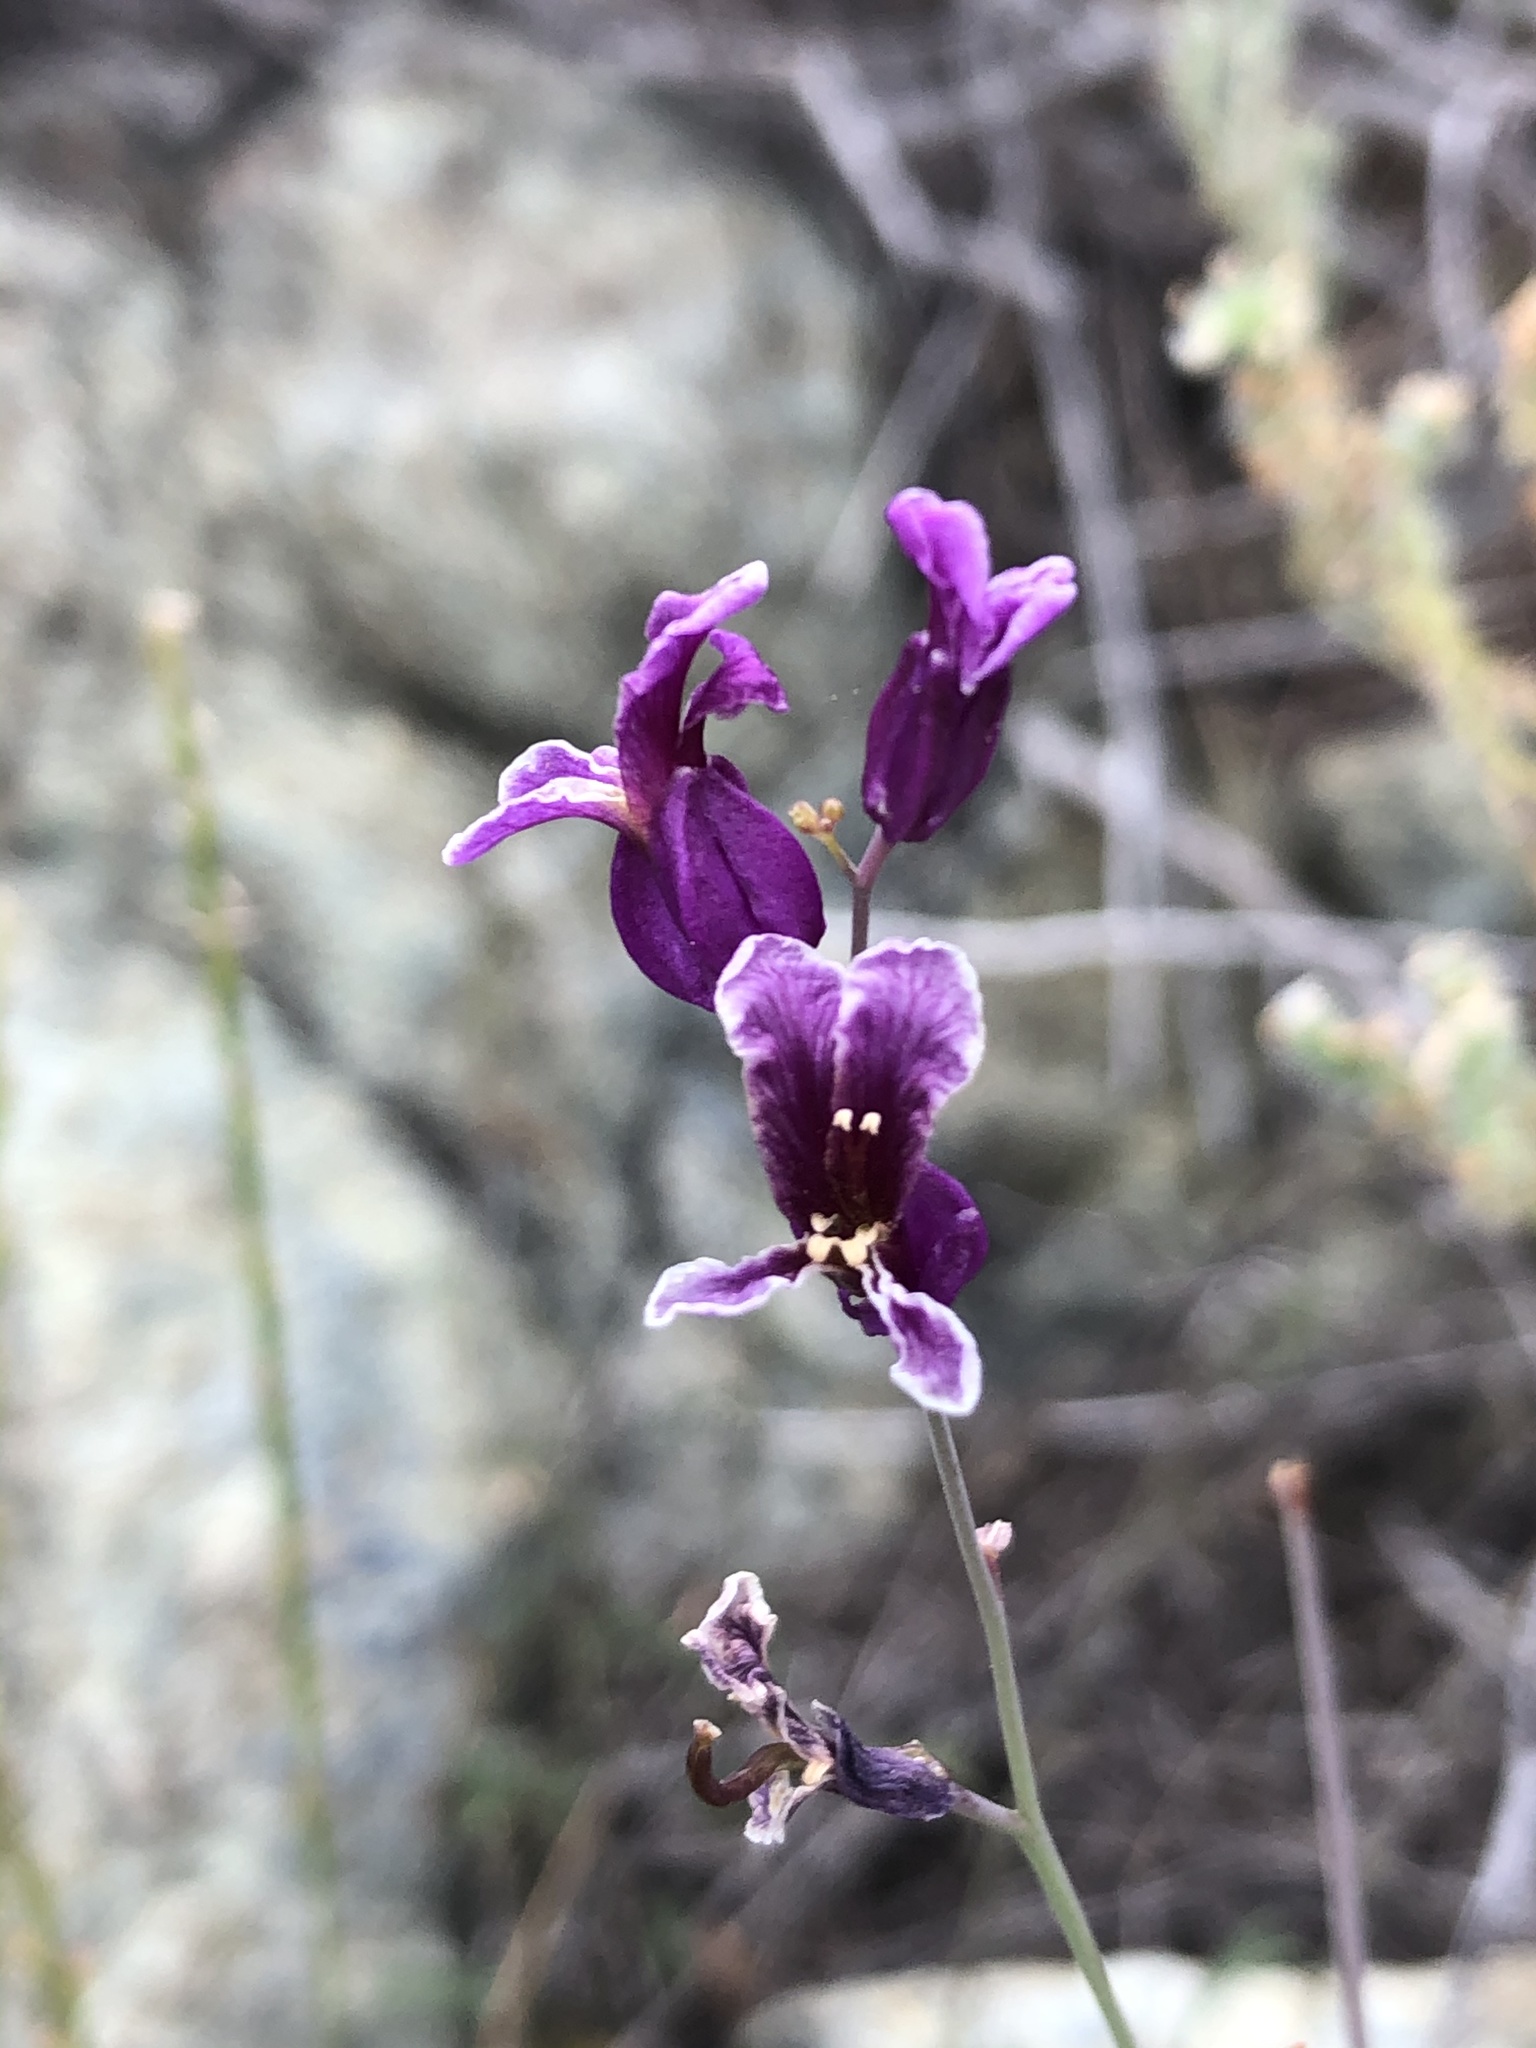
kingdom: Plantae
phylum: Tracheophyta
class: Magnoliopsida
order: Brassicales
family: Brassicaceae
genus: Streptanthus
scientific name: Streptanthus glandulosus
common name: Jewel-flower
